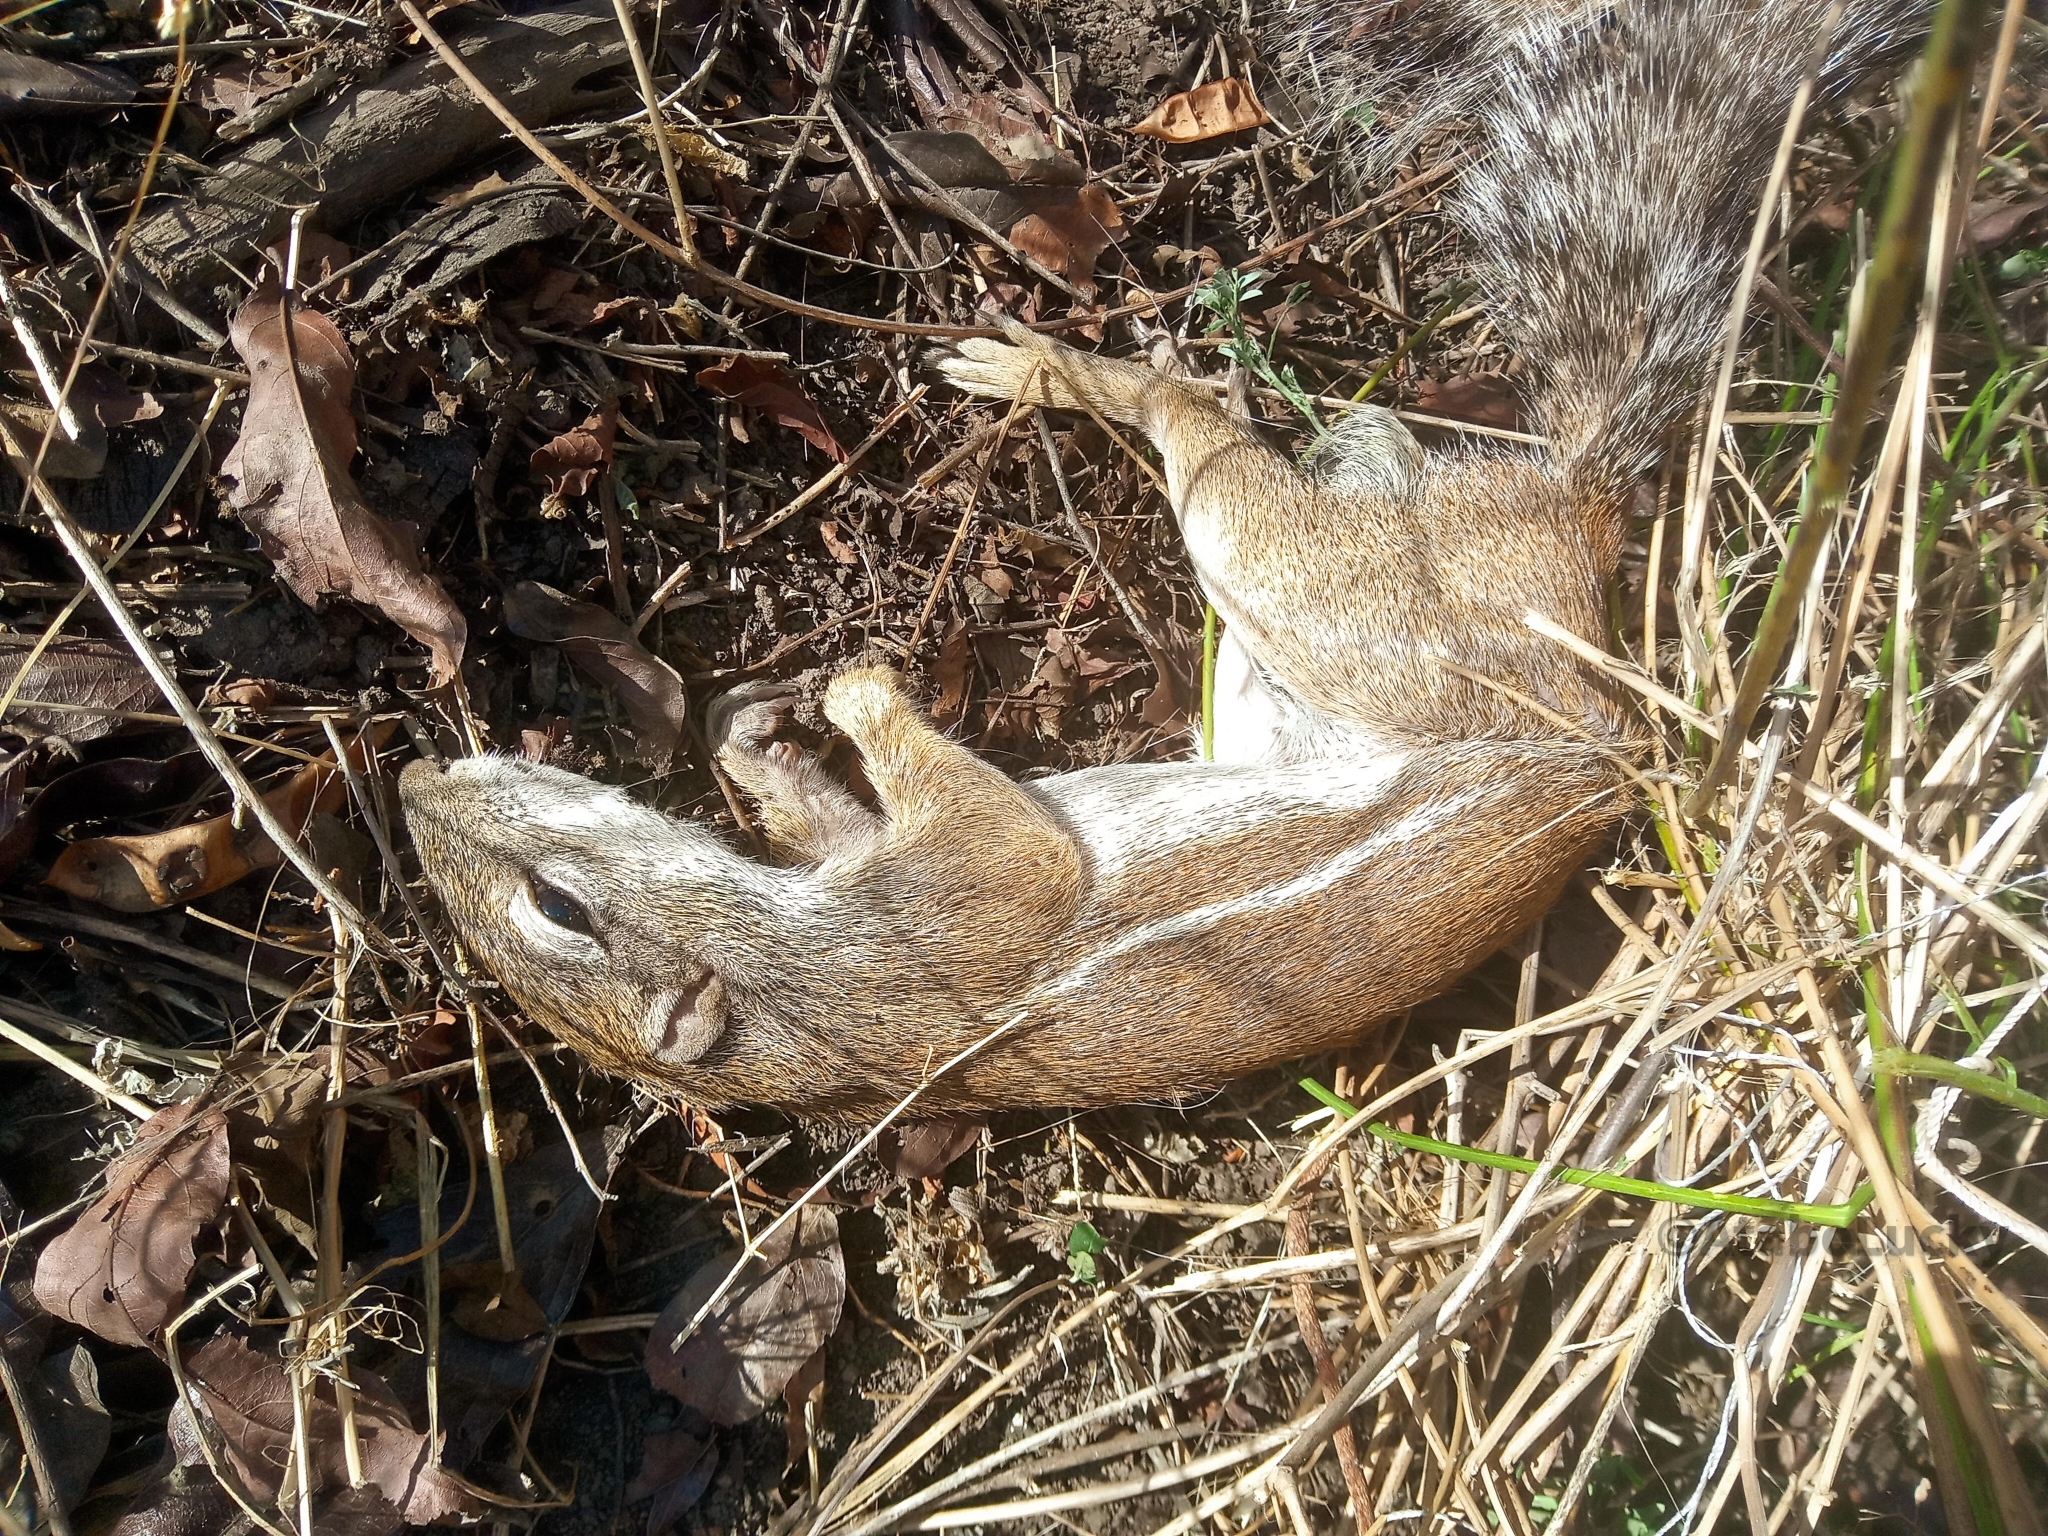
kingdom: Animalia
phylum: Chordata
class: Mammalia
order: Rodentia
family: Sciuridae
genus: Xerus
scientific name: Xerus erythropus
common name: Striped ground squirrel
